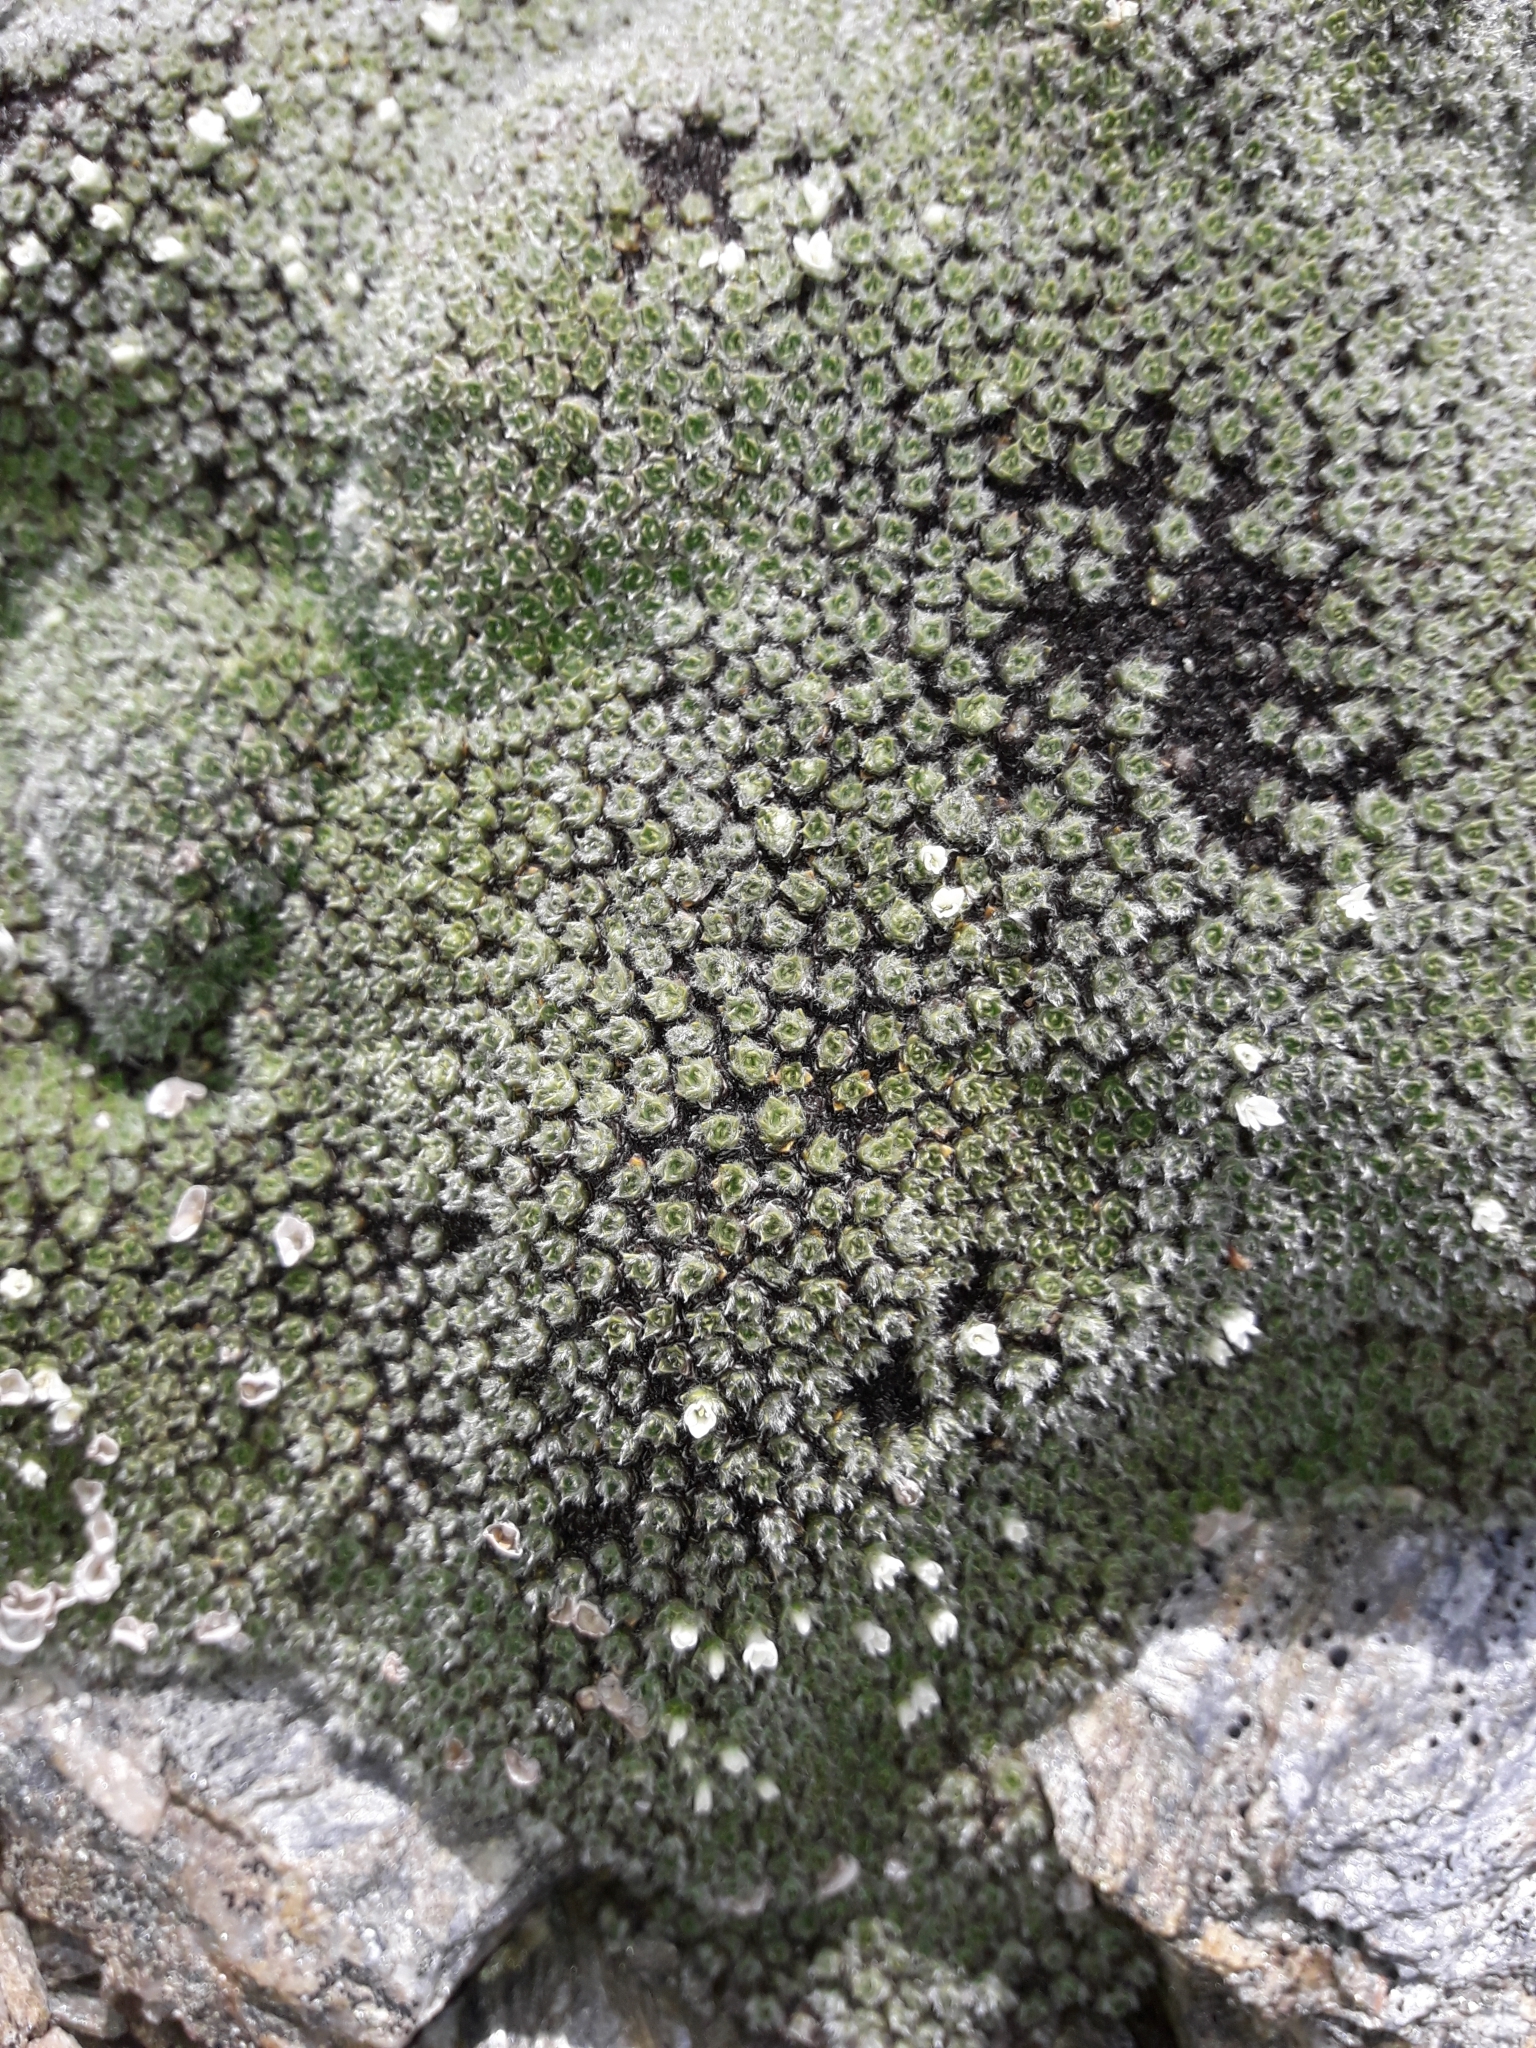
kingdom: Plantae
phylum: Tracheophyta
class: Magnoliopsida
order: Lamiales
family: Plantaginaceae
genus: Veronica
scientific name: Veronica thomsonii
